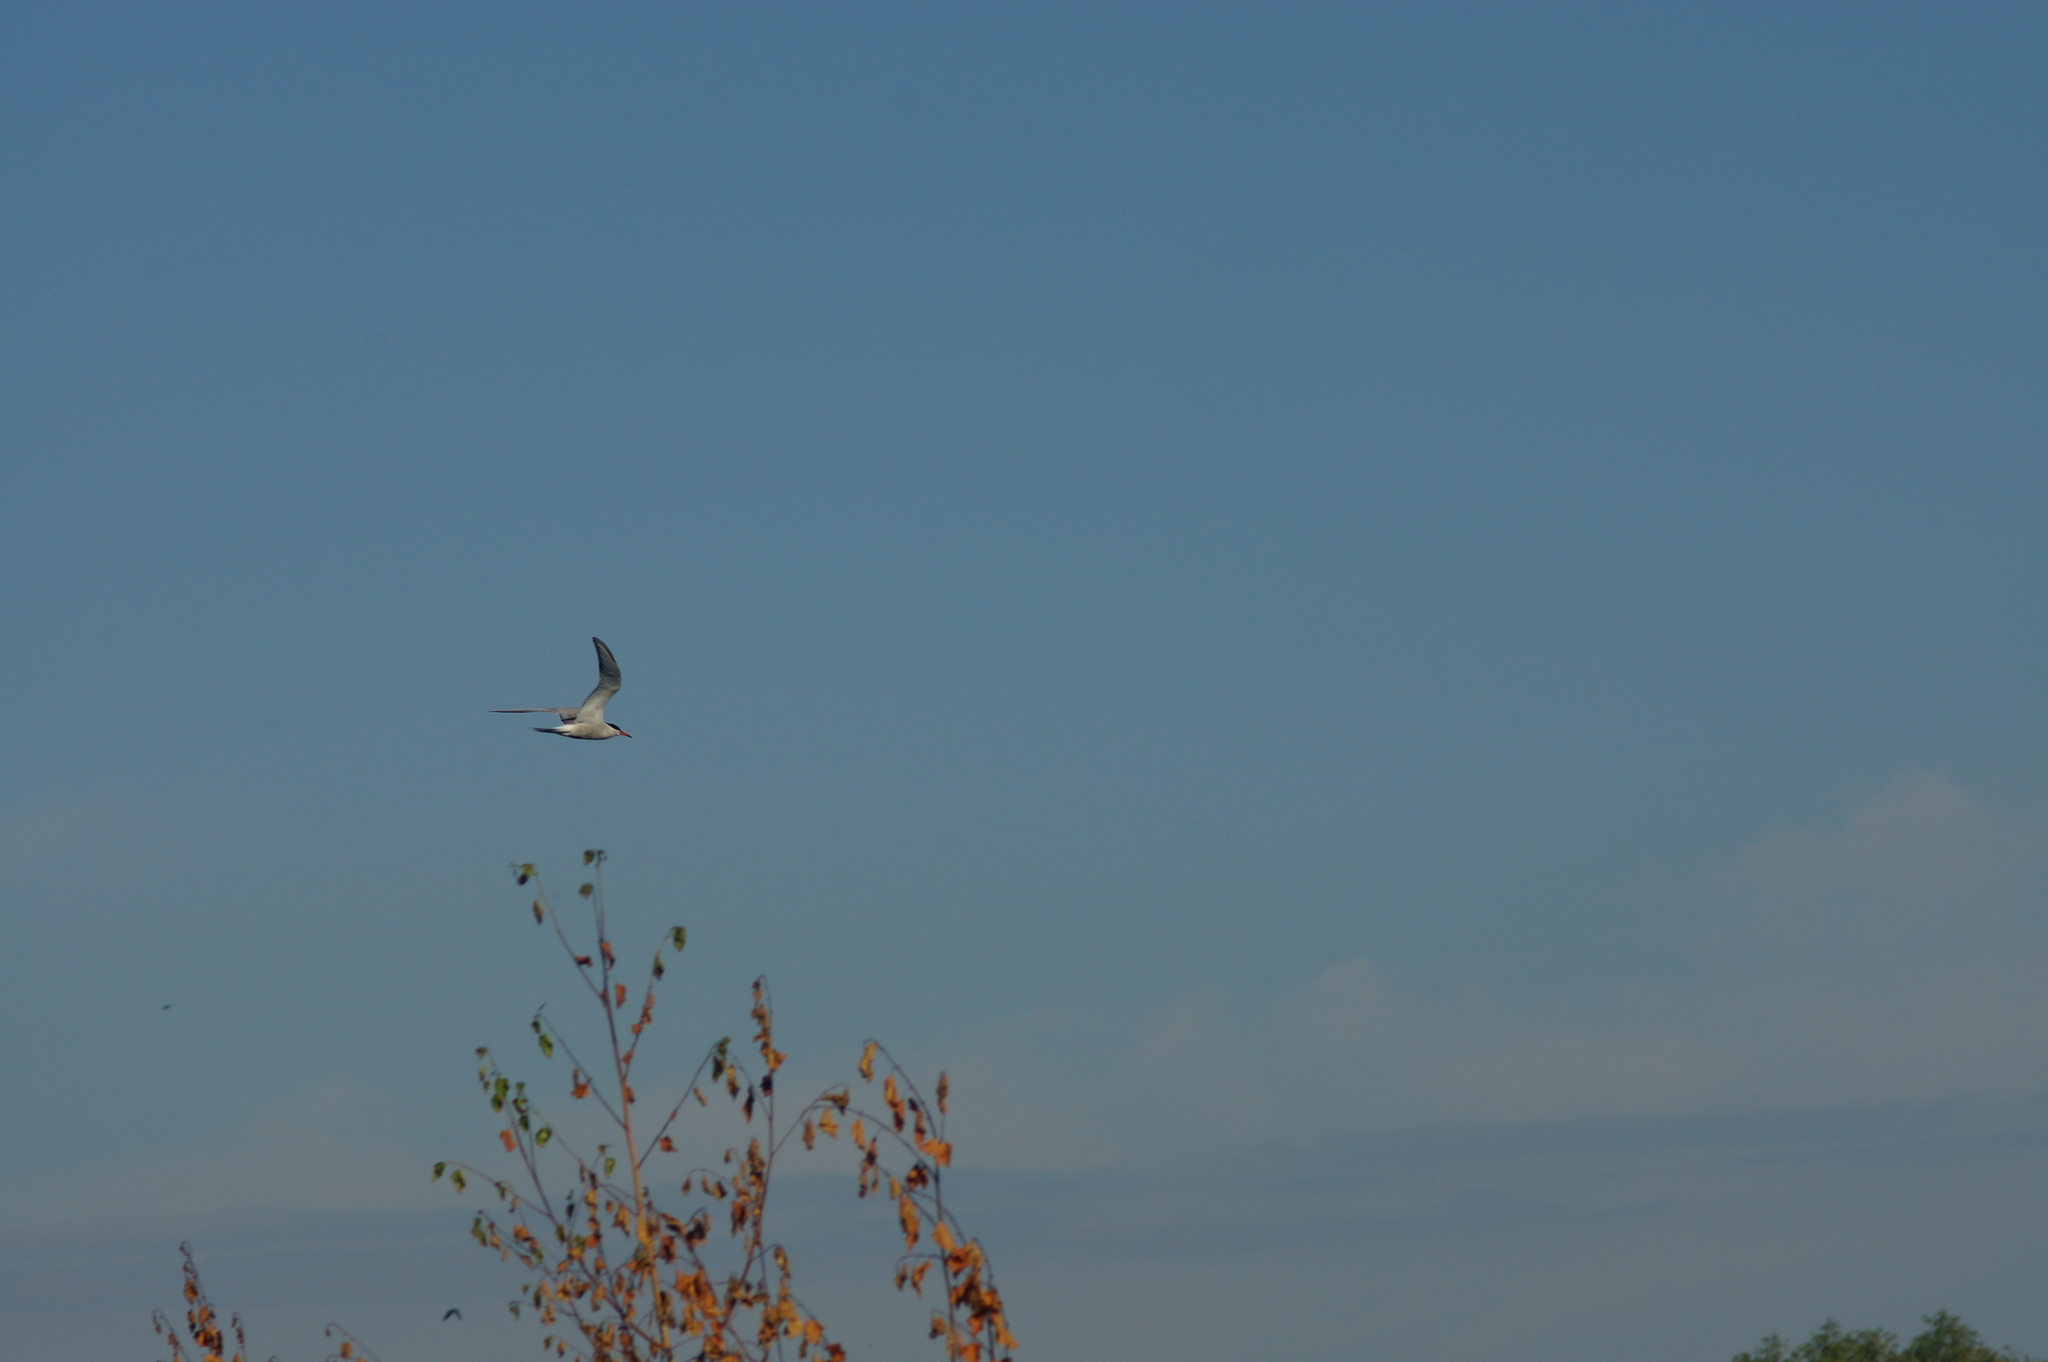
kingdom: Animalia
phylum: Chordata
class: Aves
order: Charadriiformes
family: Laridae
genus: Sterna
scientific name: Sterna hirundo
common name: Common tern
